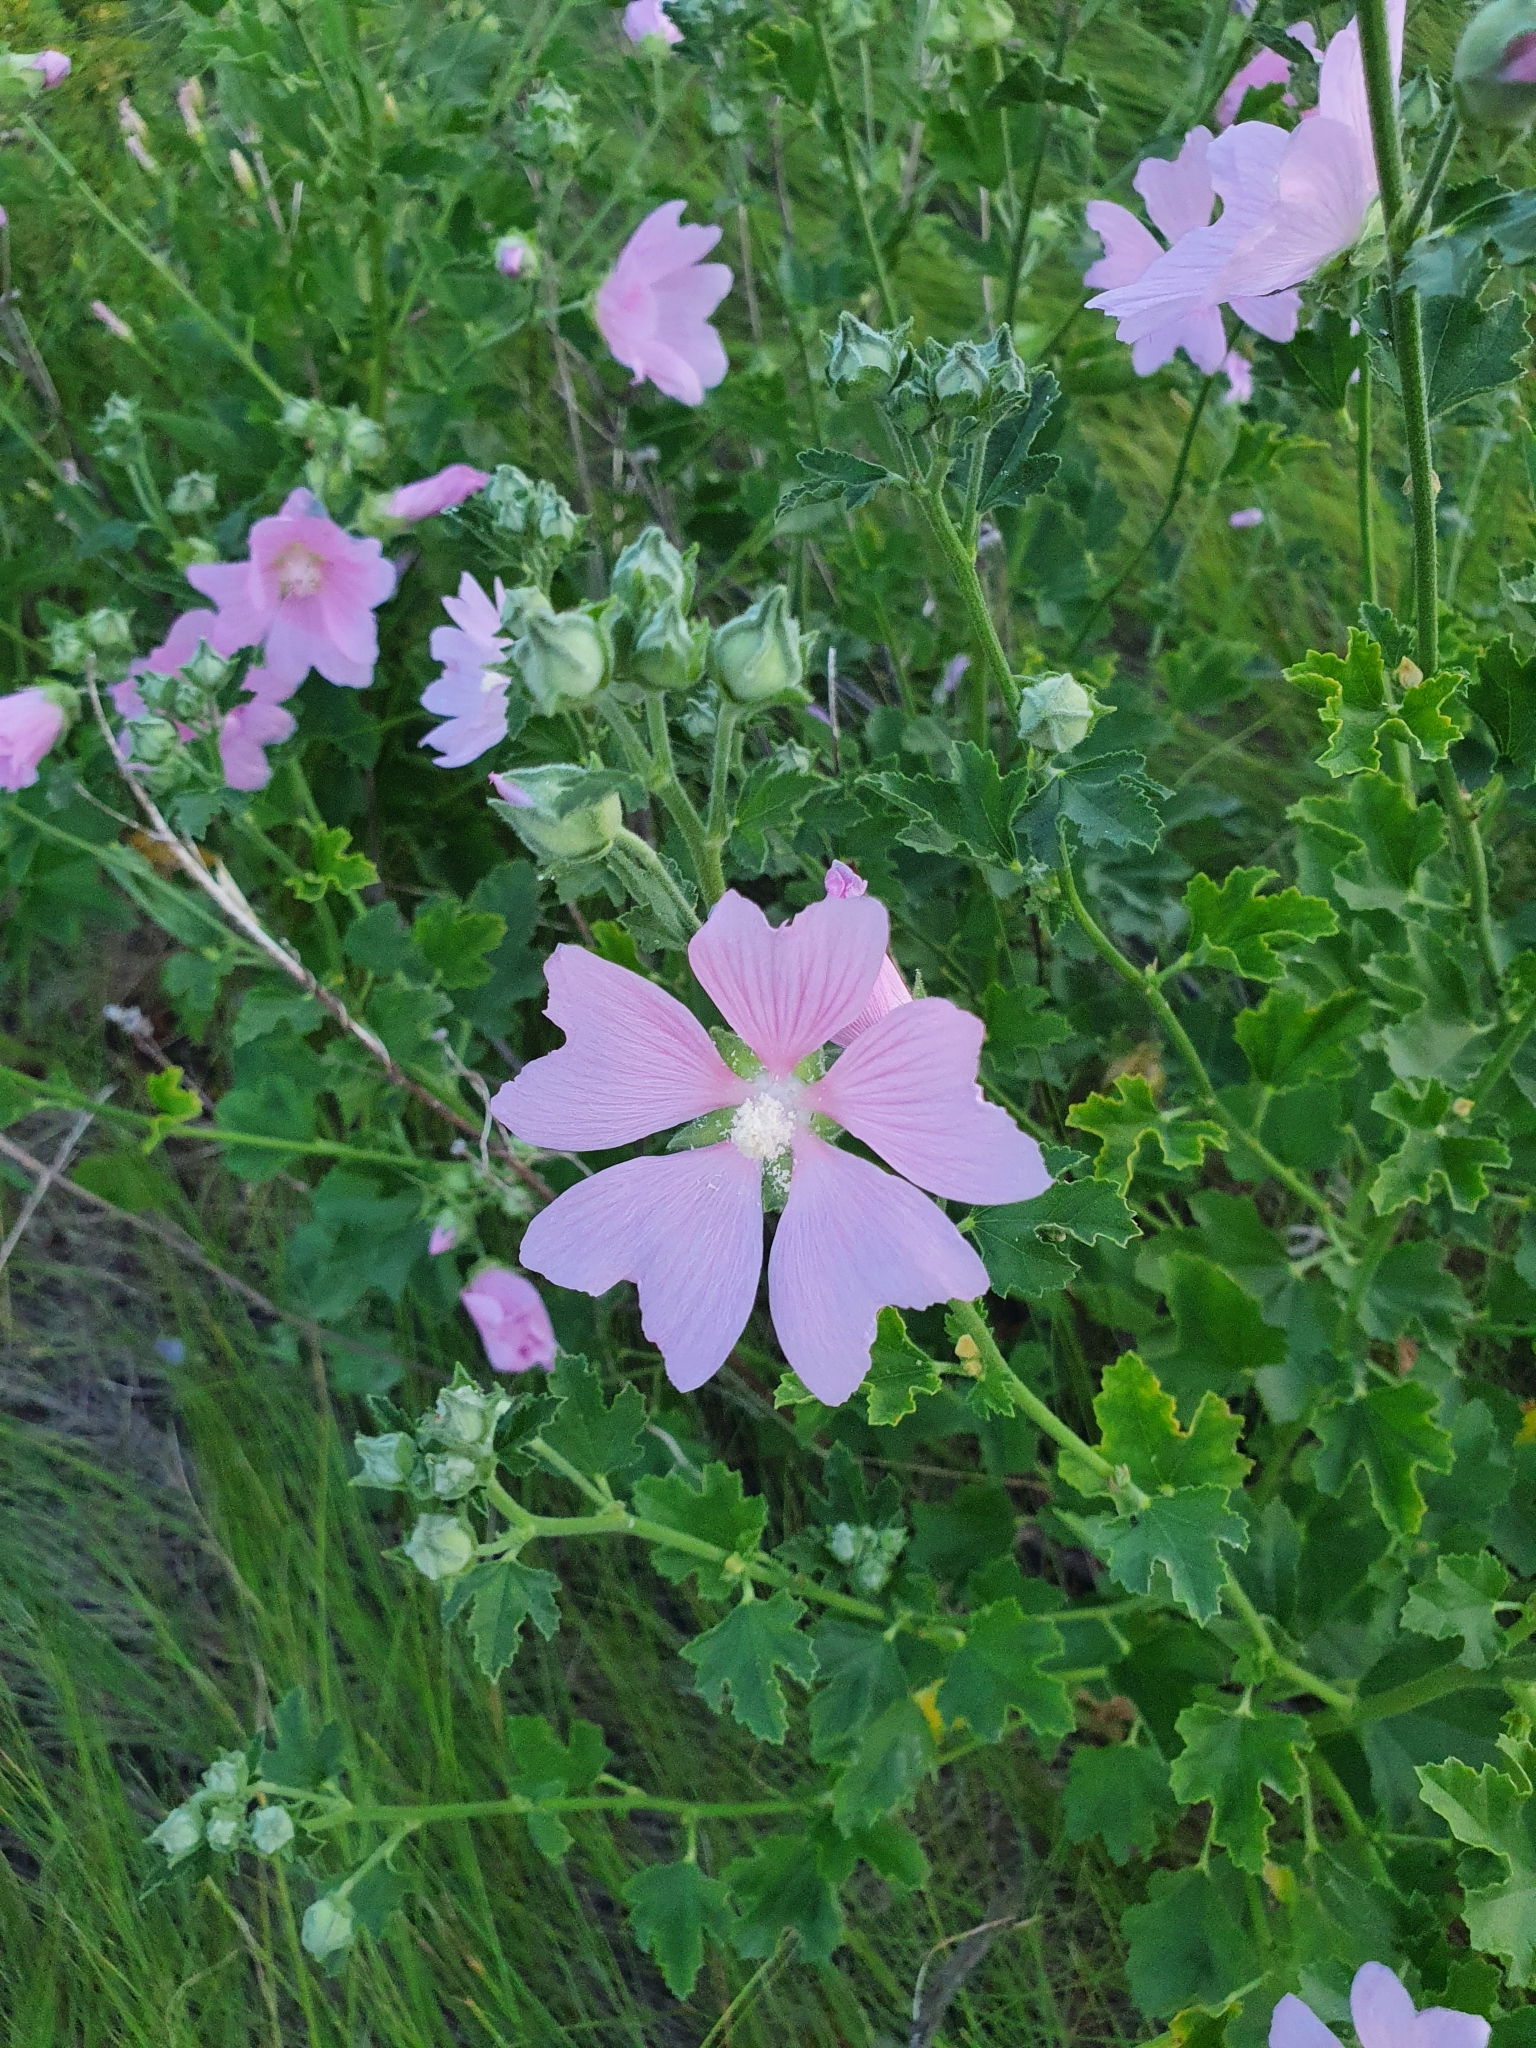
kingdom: Plantae
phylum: Tracheophyta
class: Magnoliopsida
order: Malvales
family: Malvaceae
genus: Malva
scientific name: Malva thuringiaca
